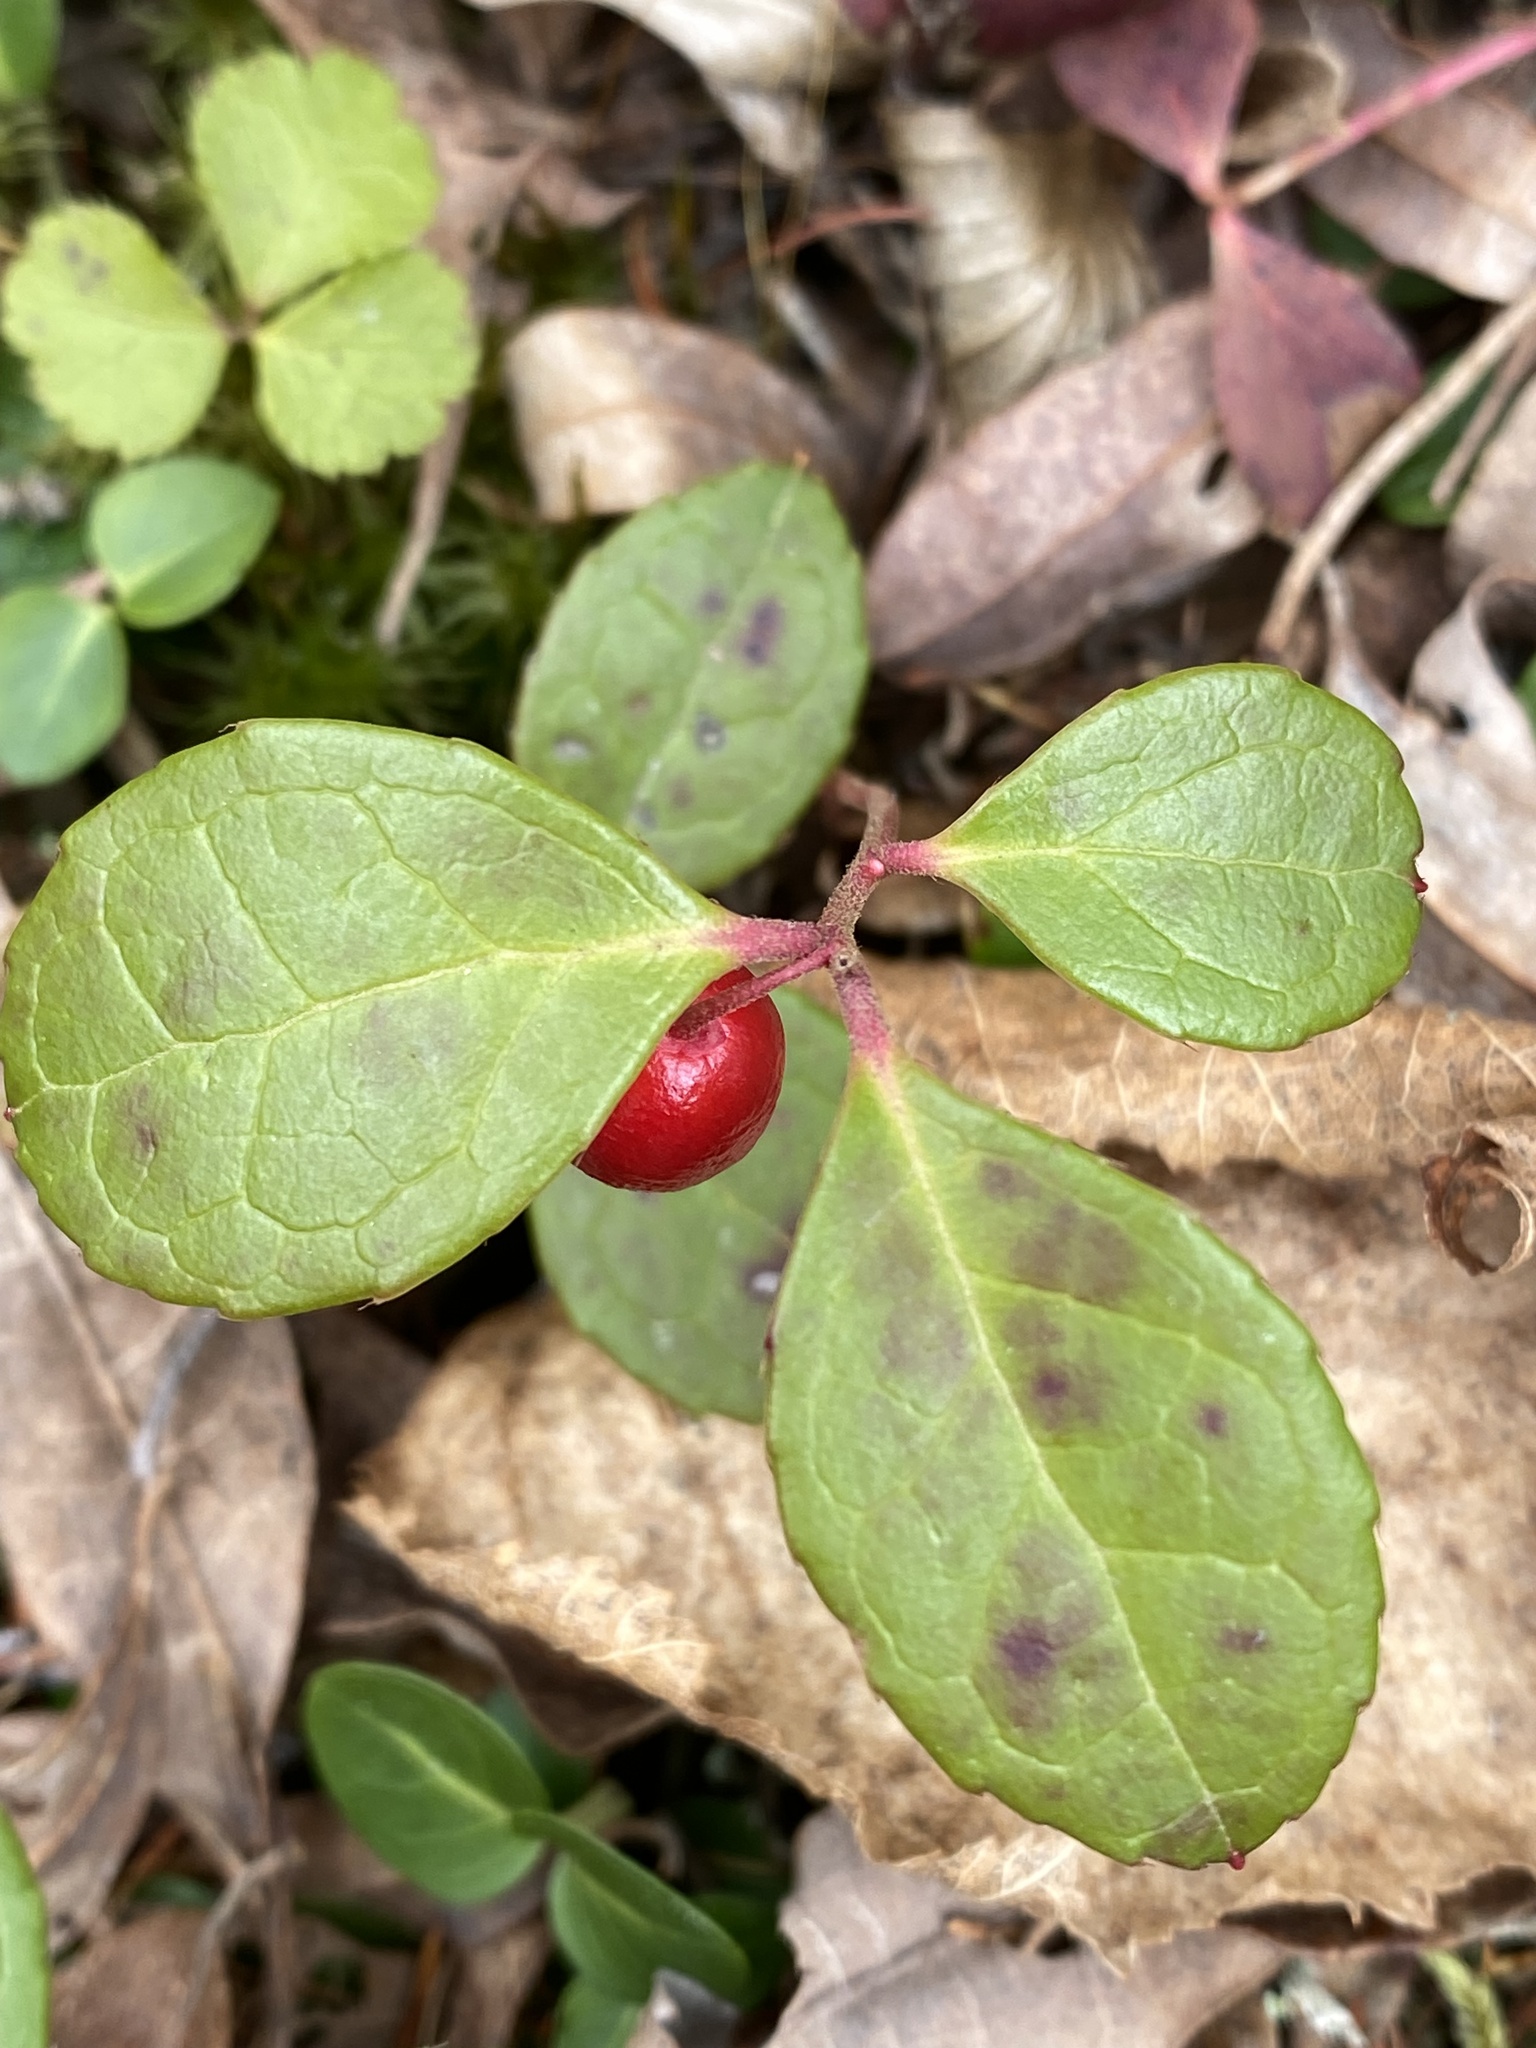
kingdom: Plantae
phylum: Tracheophyta
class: Magnoliopsida
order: Ericales
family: Ericaceae
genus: Gaultheria
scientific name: Gaultheria procumbens
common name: Checkerberry
